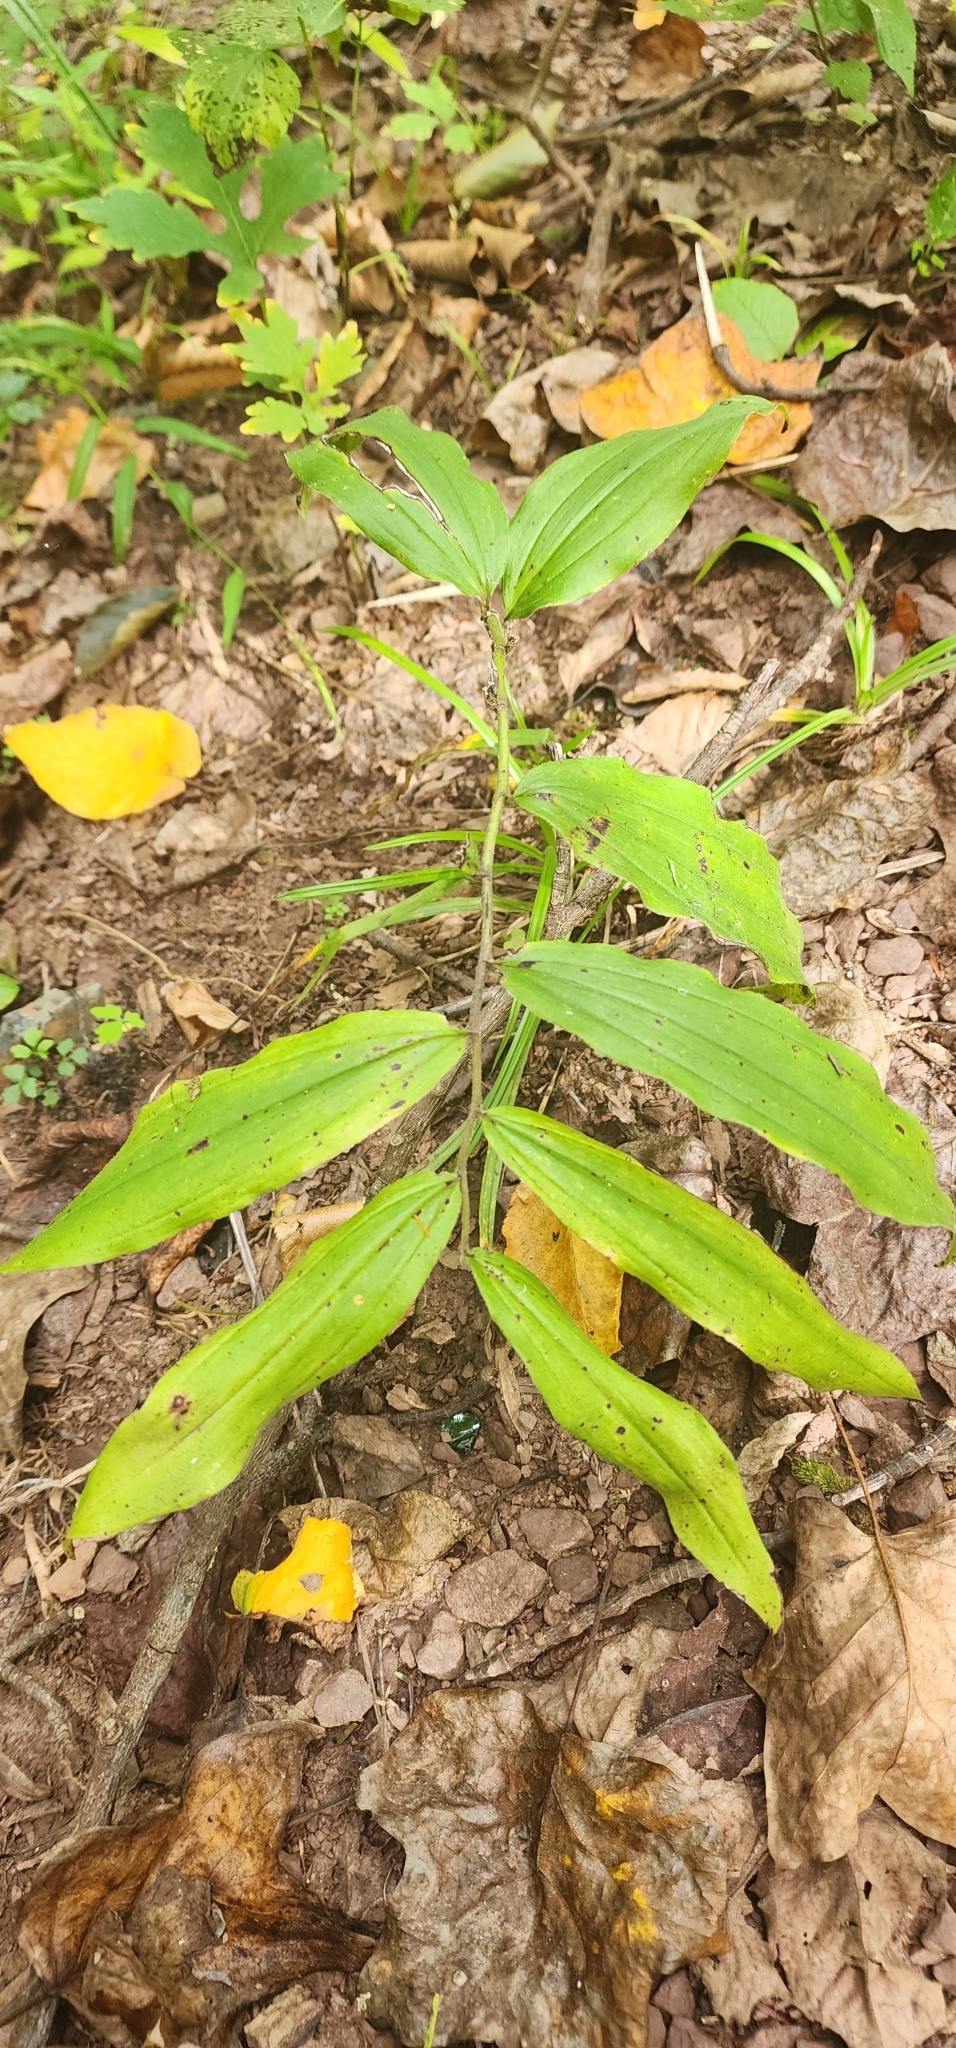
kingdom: Plantae
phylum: Tracheophyta
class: Liliopsida
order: Asparagales
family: Asparagaceae
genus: Maianthemum
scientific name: Maianthemum racemosum
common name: False spikenard
